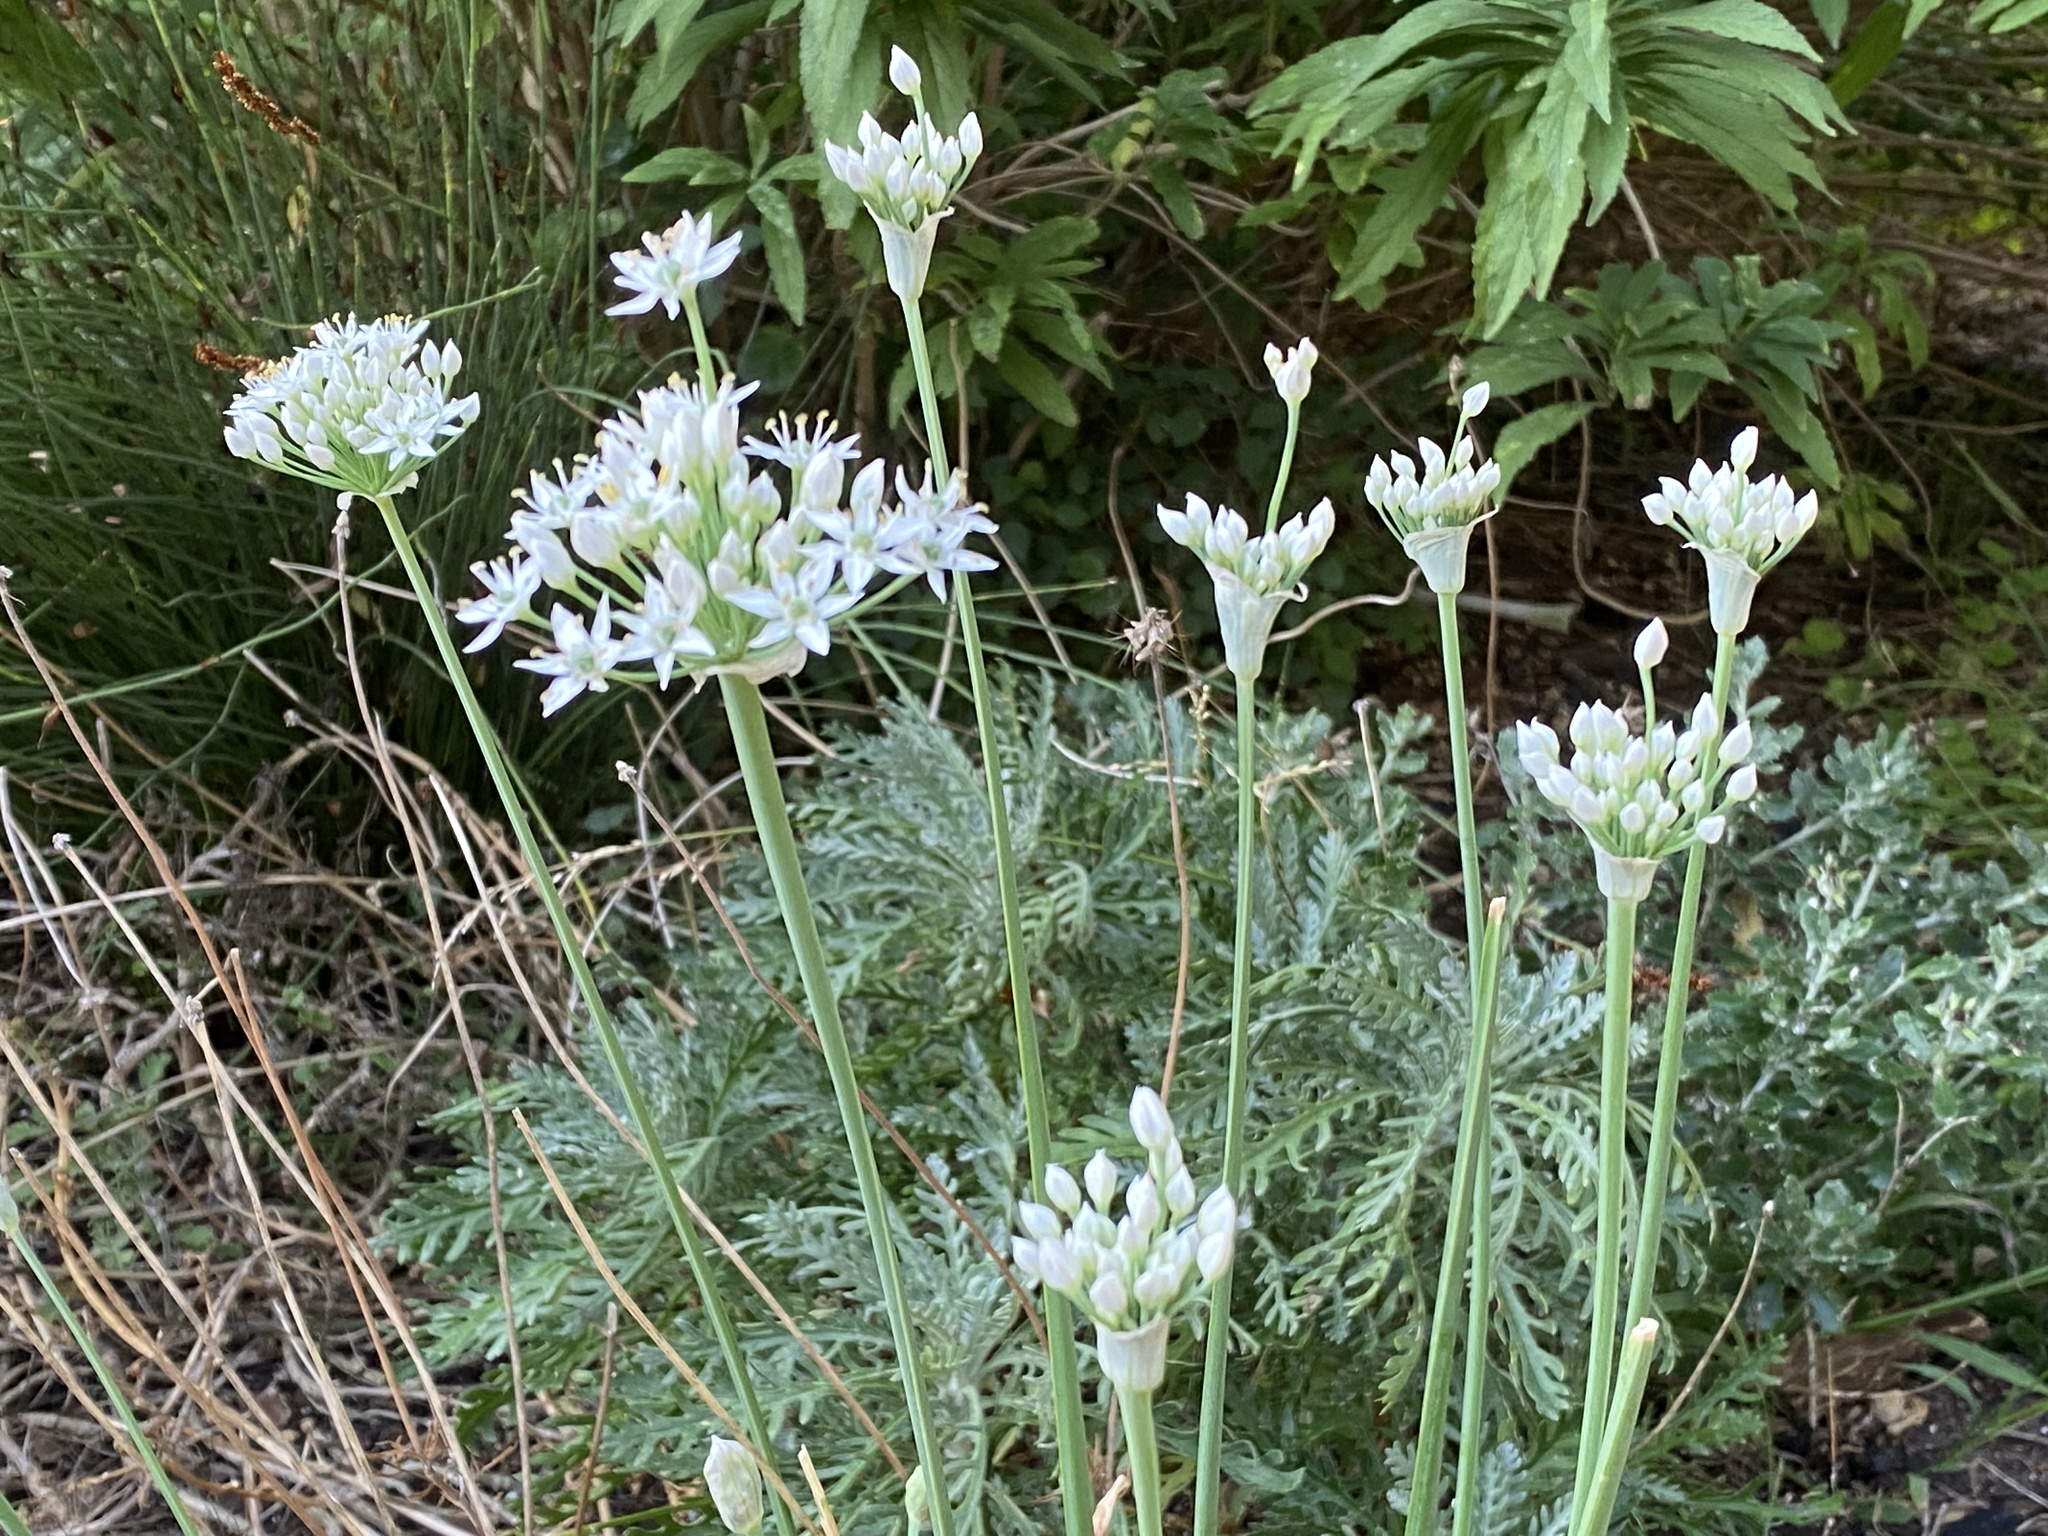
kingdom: Plantae
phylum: Tracheophyta
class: Liliopsida
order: Asparagales
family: Amaryllidaceae
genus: Allium
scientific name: Allium tuberosum
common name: Chinese chives
